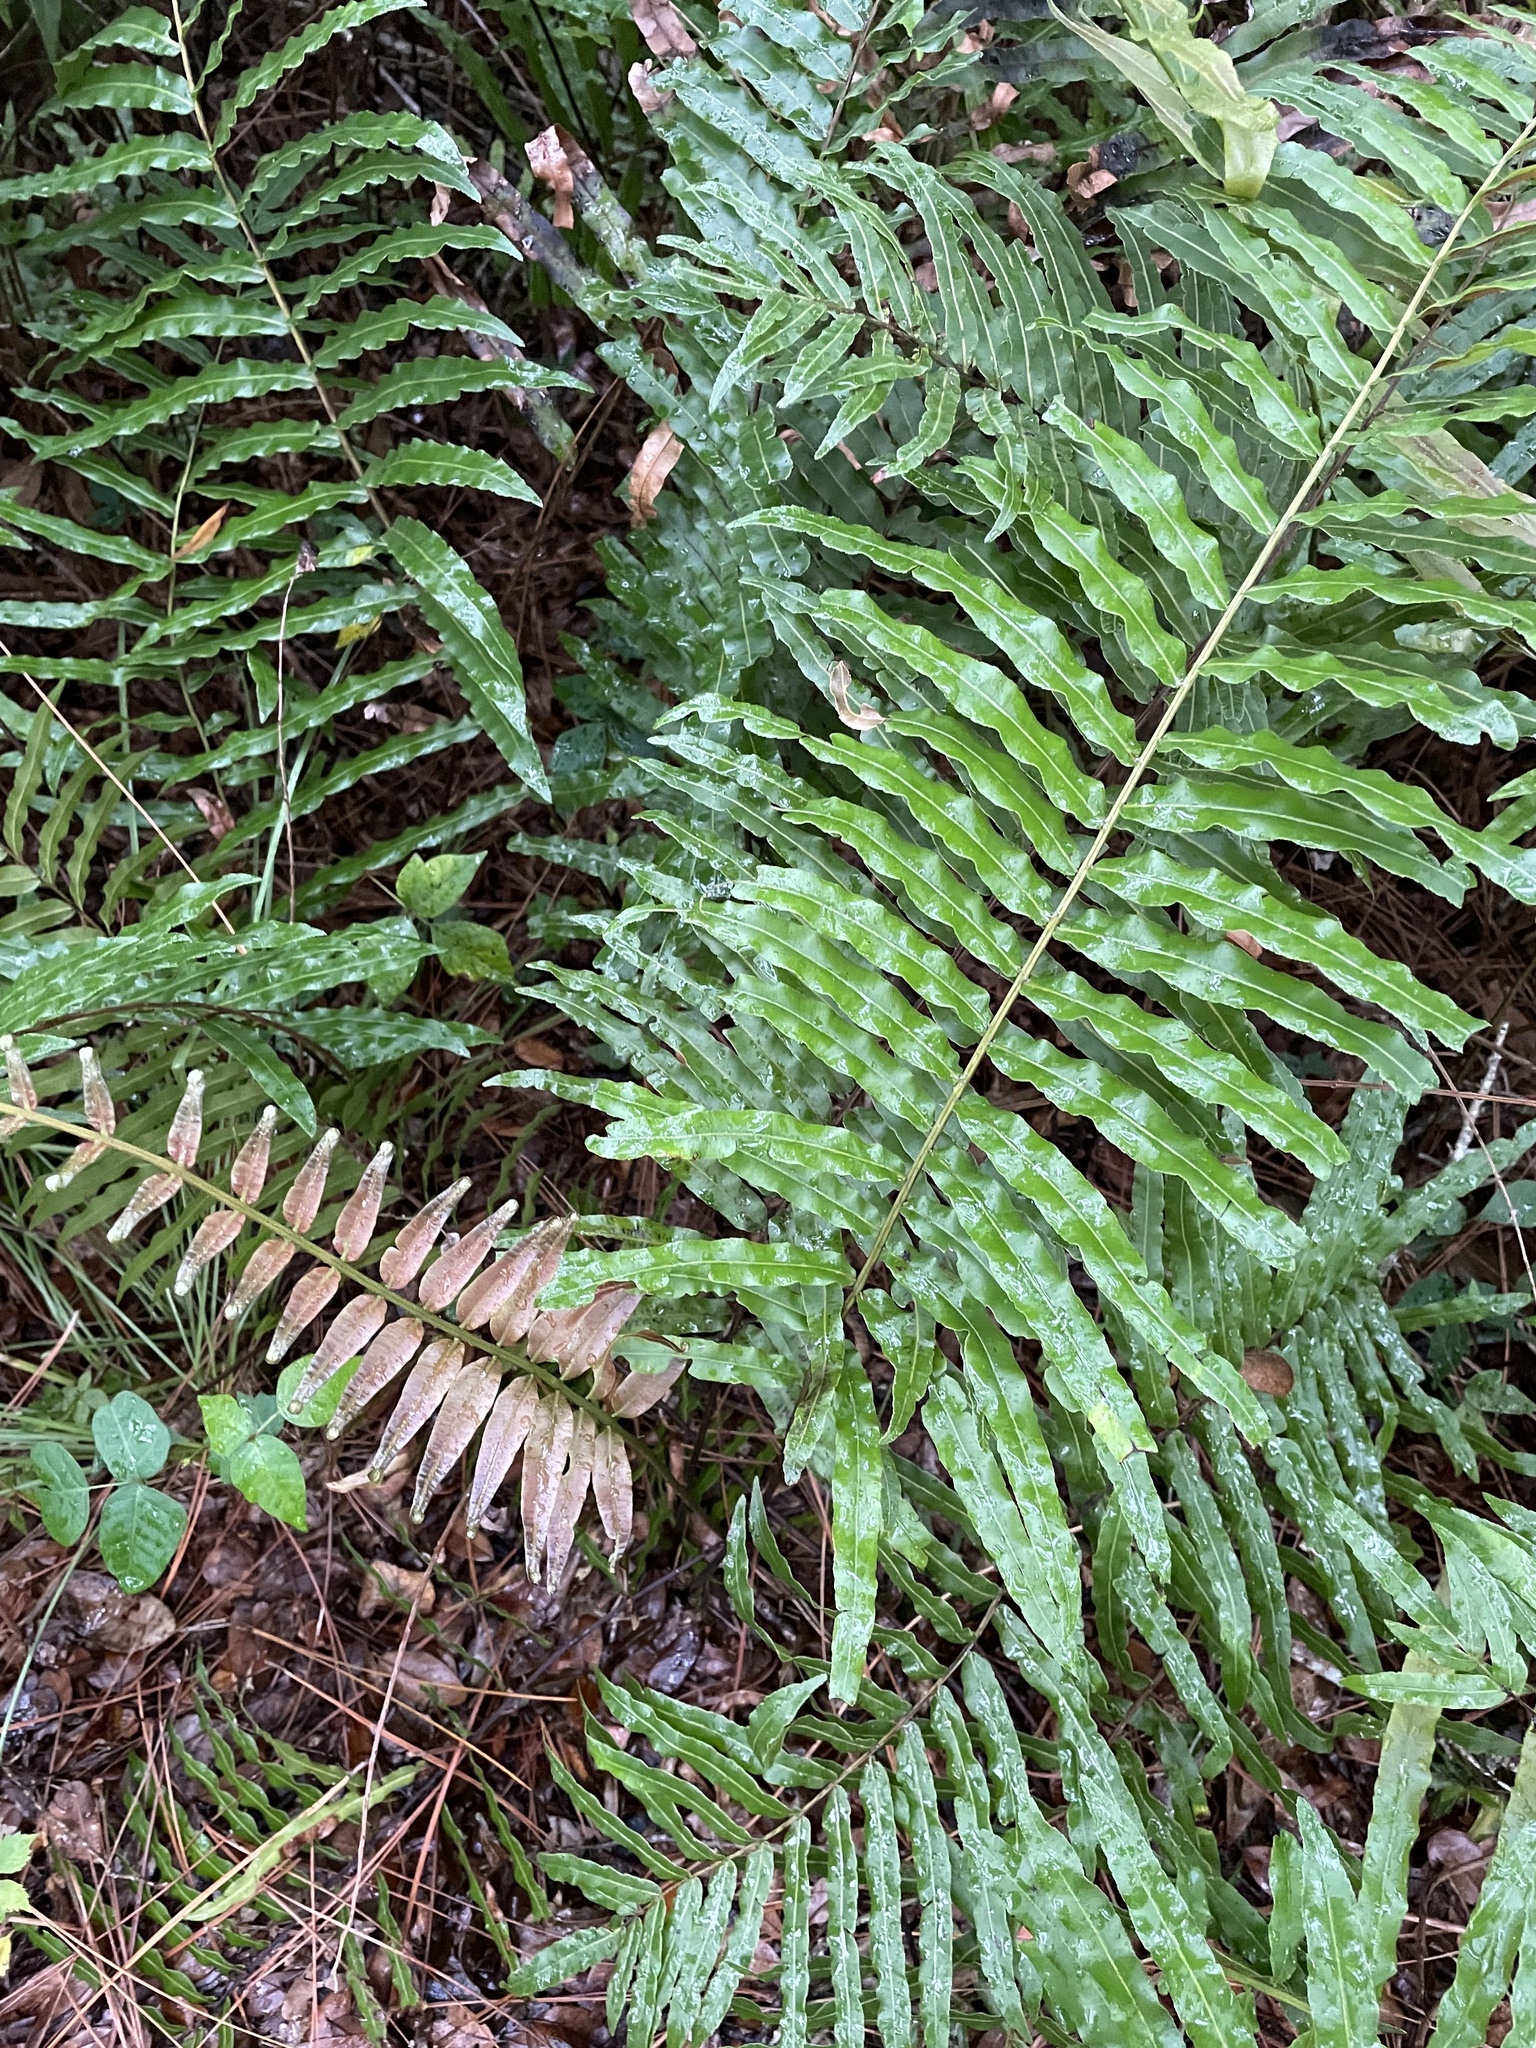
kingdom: Plantae
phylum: Tracheophyta
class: Polypodiopsida
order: Polypodiales
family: Blechnaceae
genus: Telmatoblechnum
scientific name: Telmatoblechnum serrulatum
